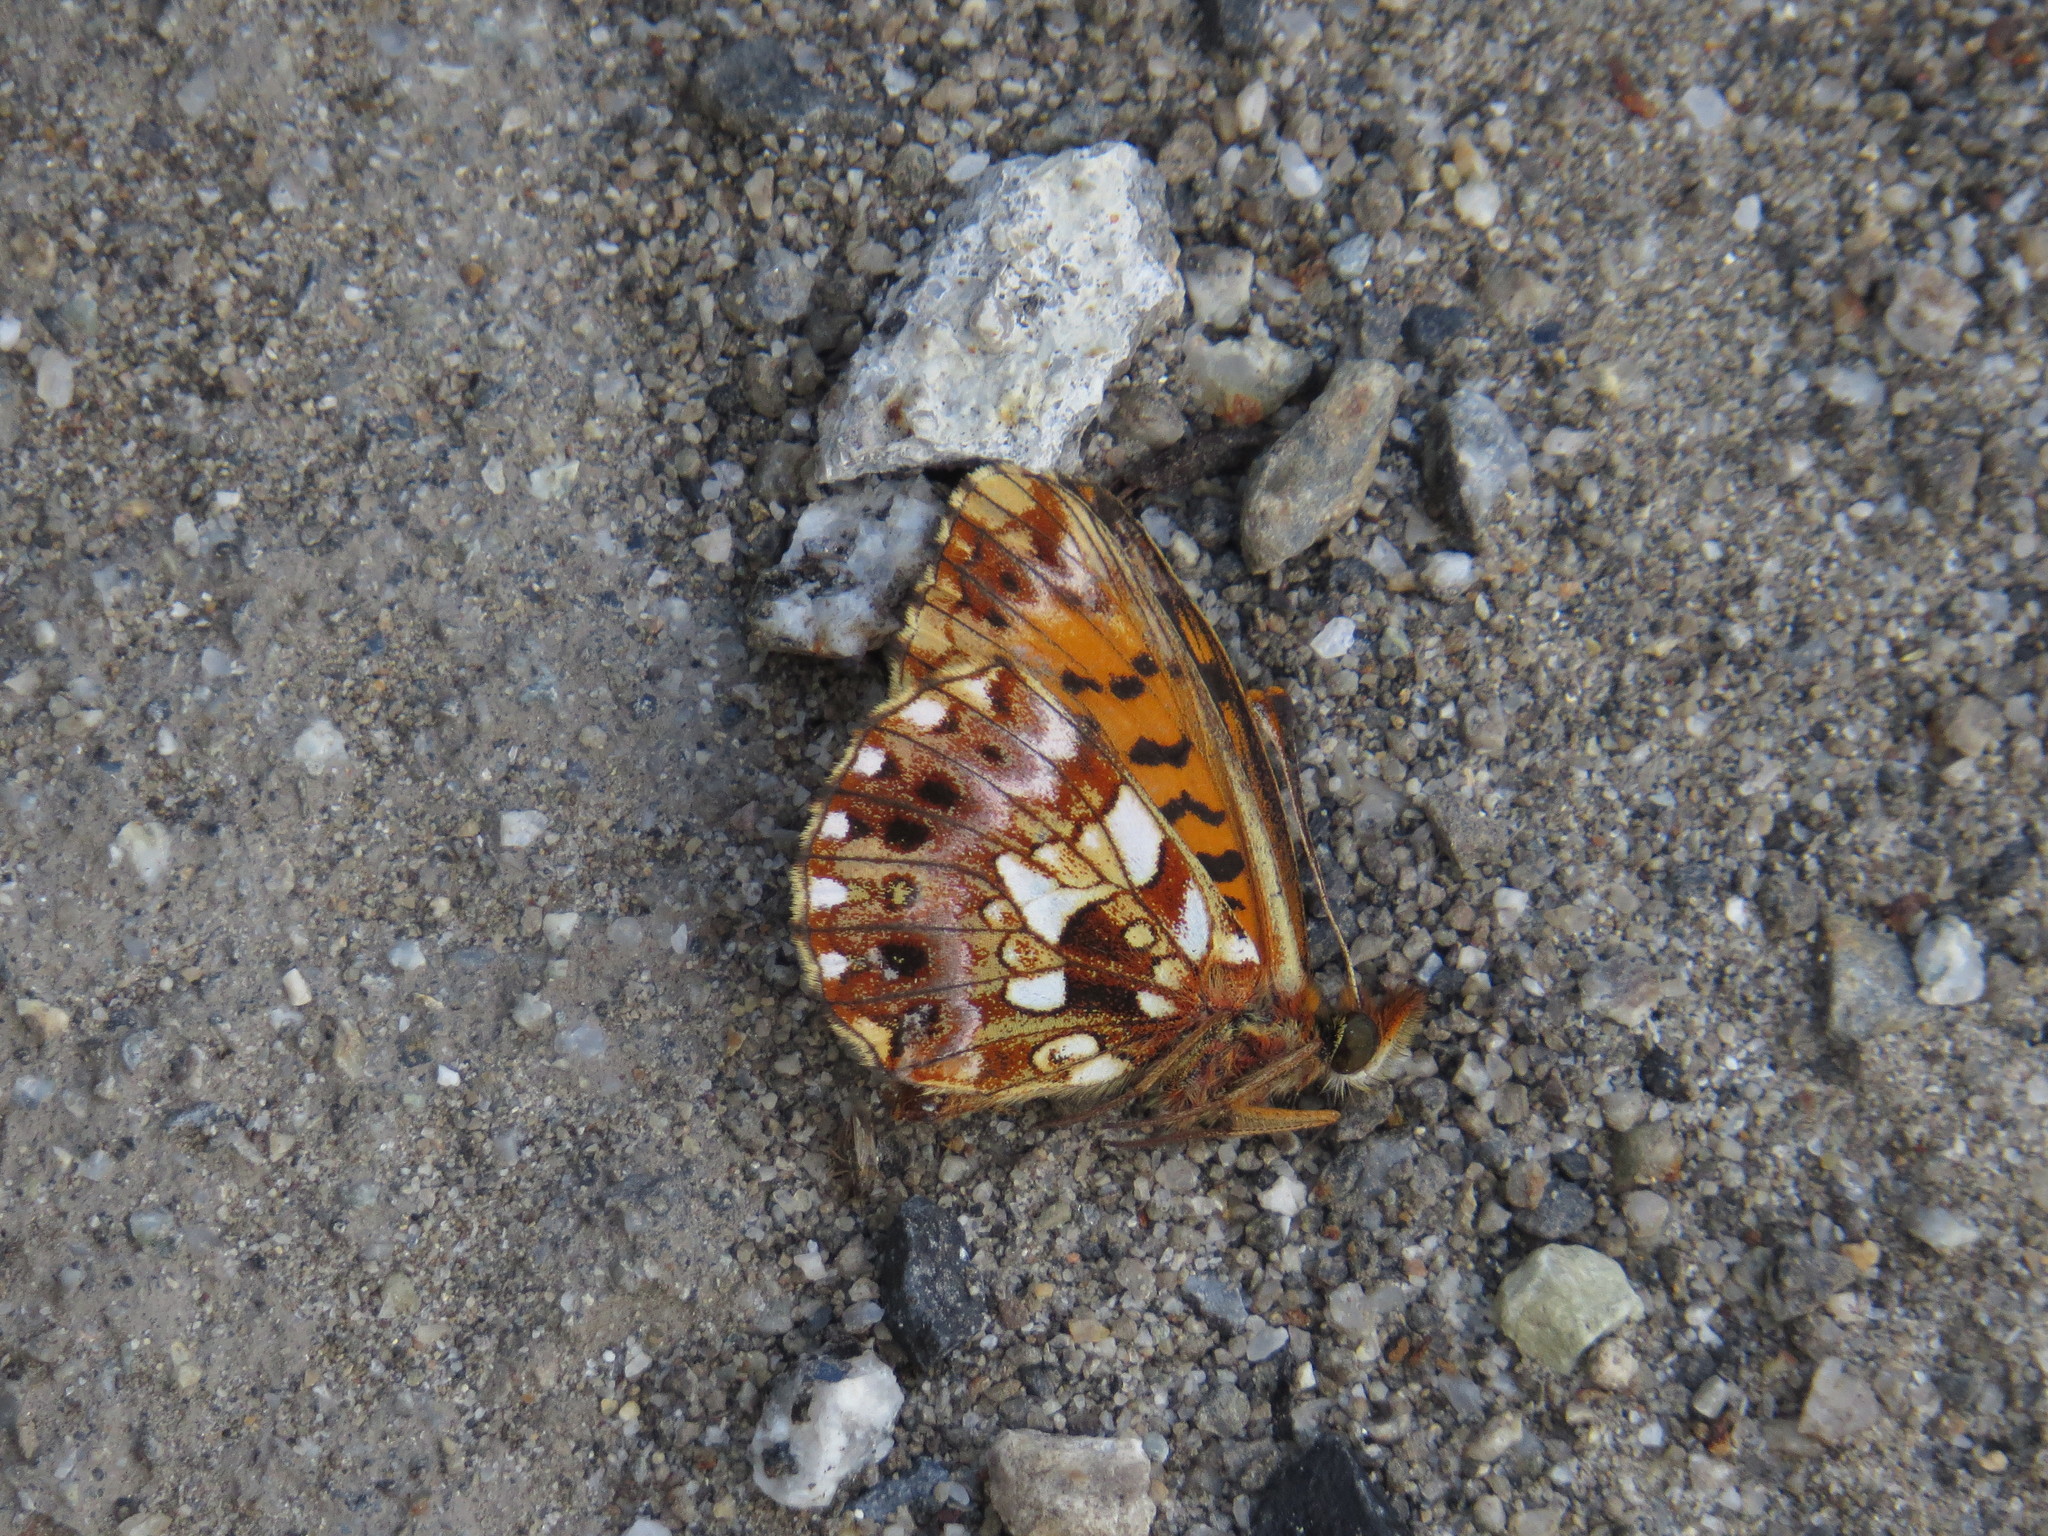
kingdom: Animalia
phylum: Arthropoda
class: Insecta
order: Lepidoptera
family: Nymphalidae
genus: Boloria
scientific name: Boloria dia
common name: Weaver's fritillary
